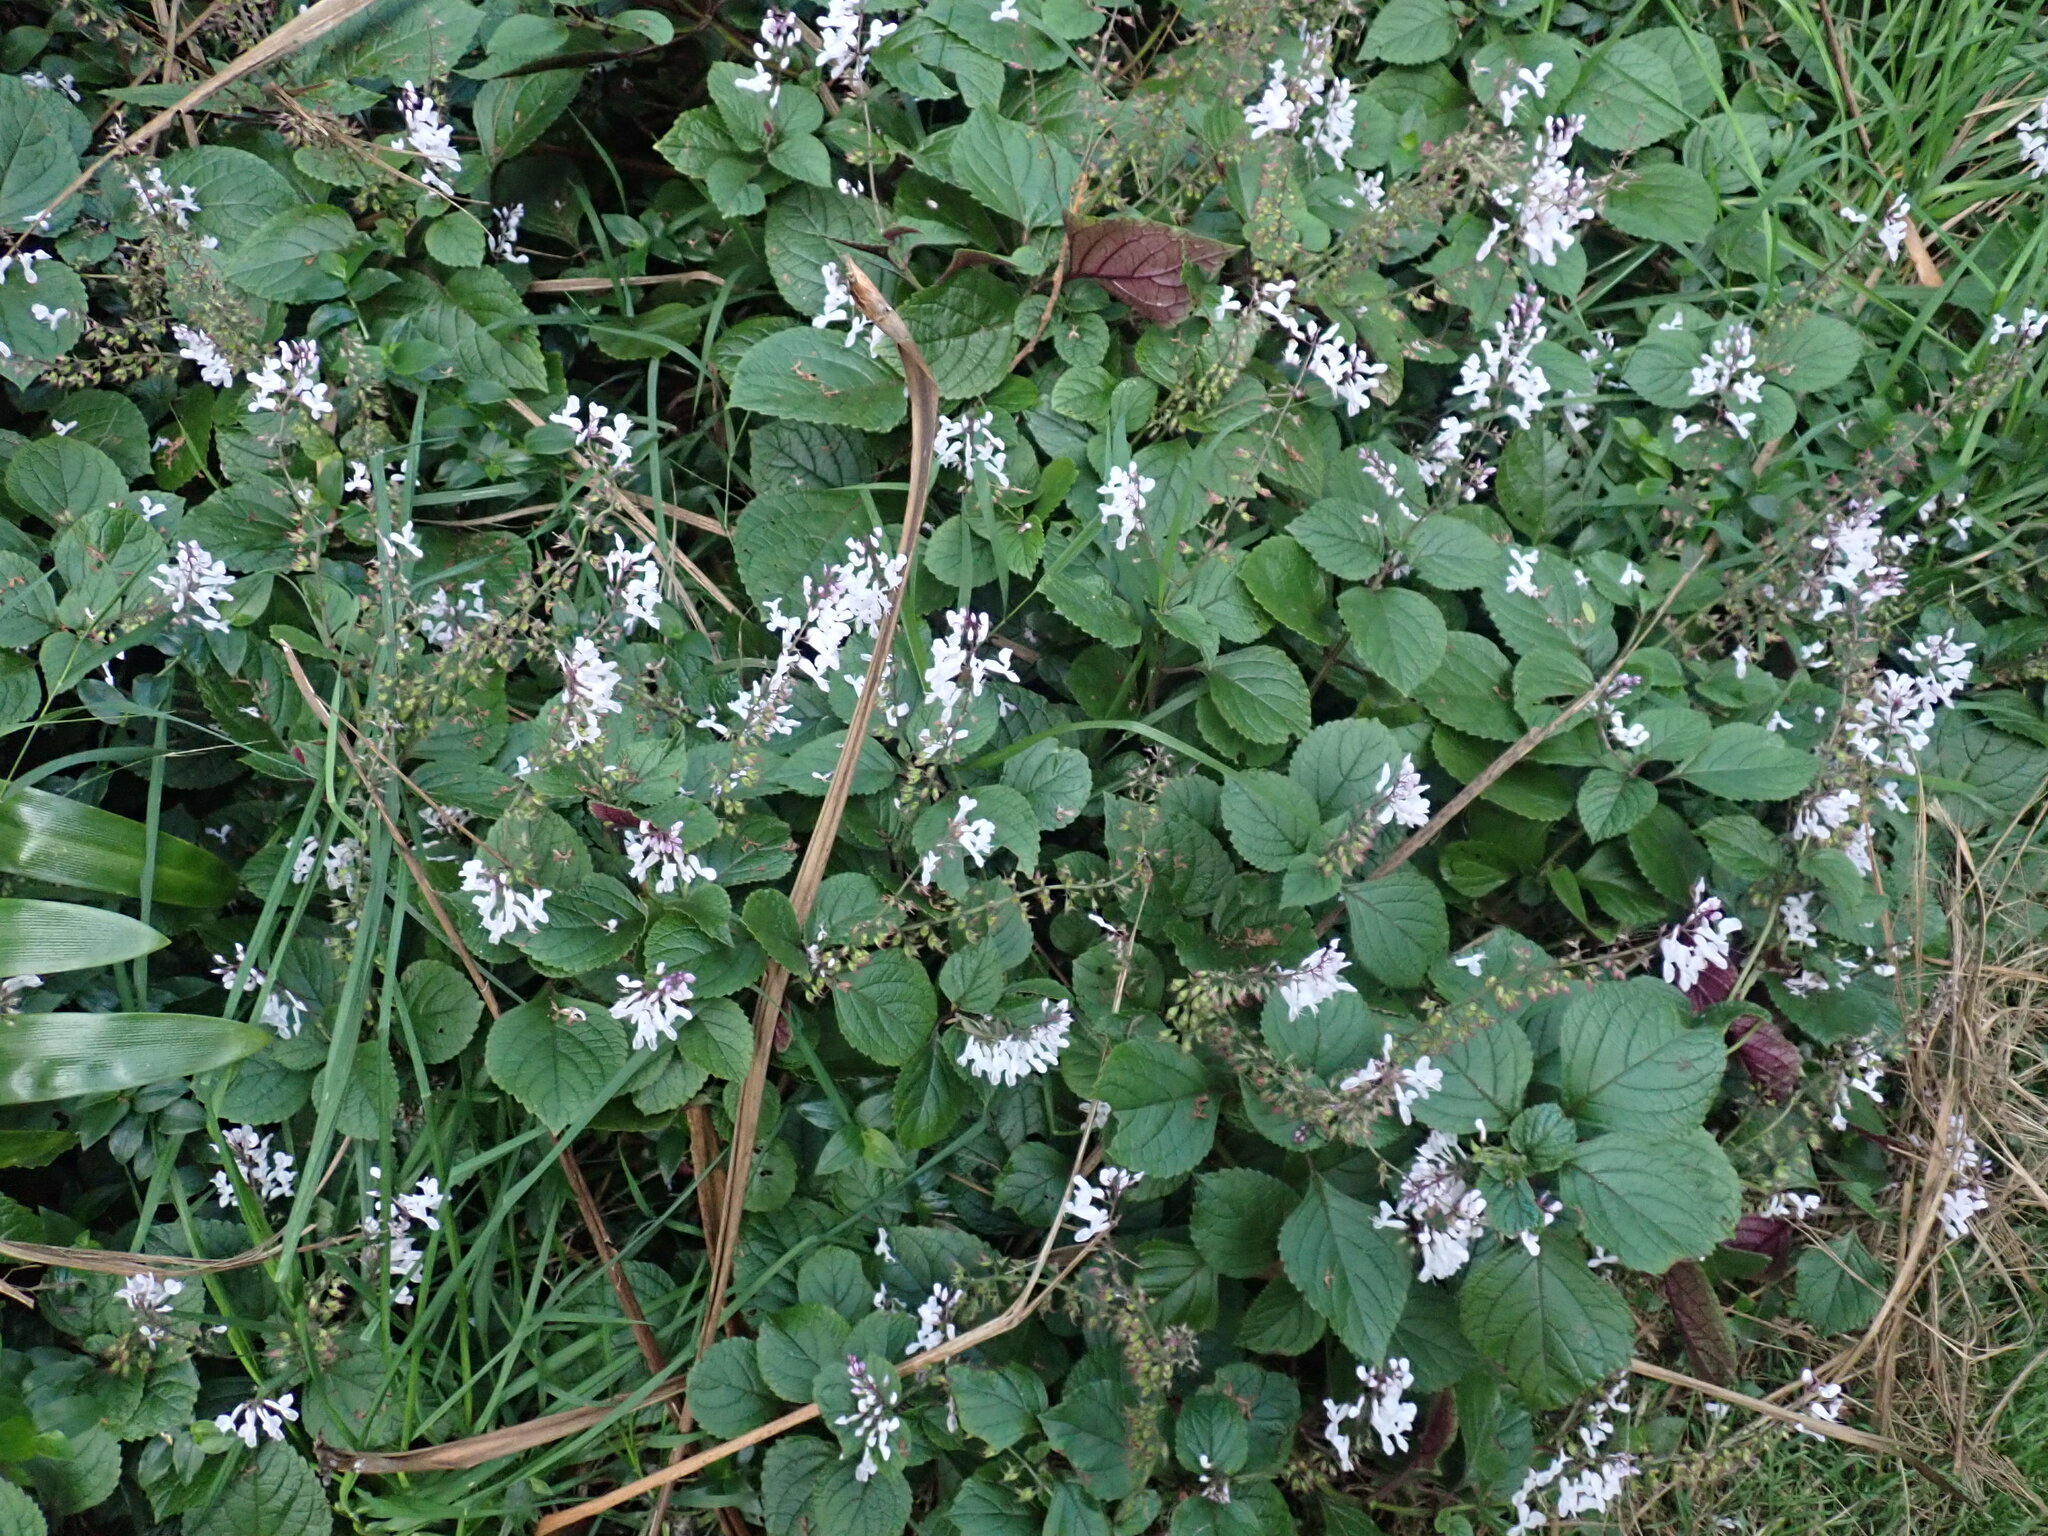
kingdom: Plantae
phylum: Tracheophyta
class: Magnoliopsida
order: Lamiales
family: Lamiaceae
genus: Plectranthus
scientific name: Plectranthus ciliatus
